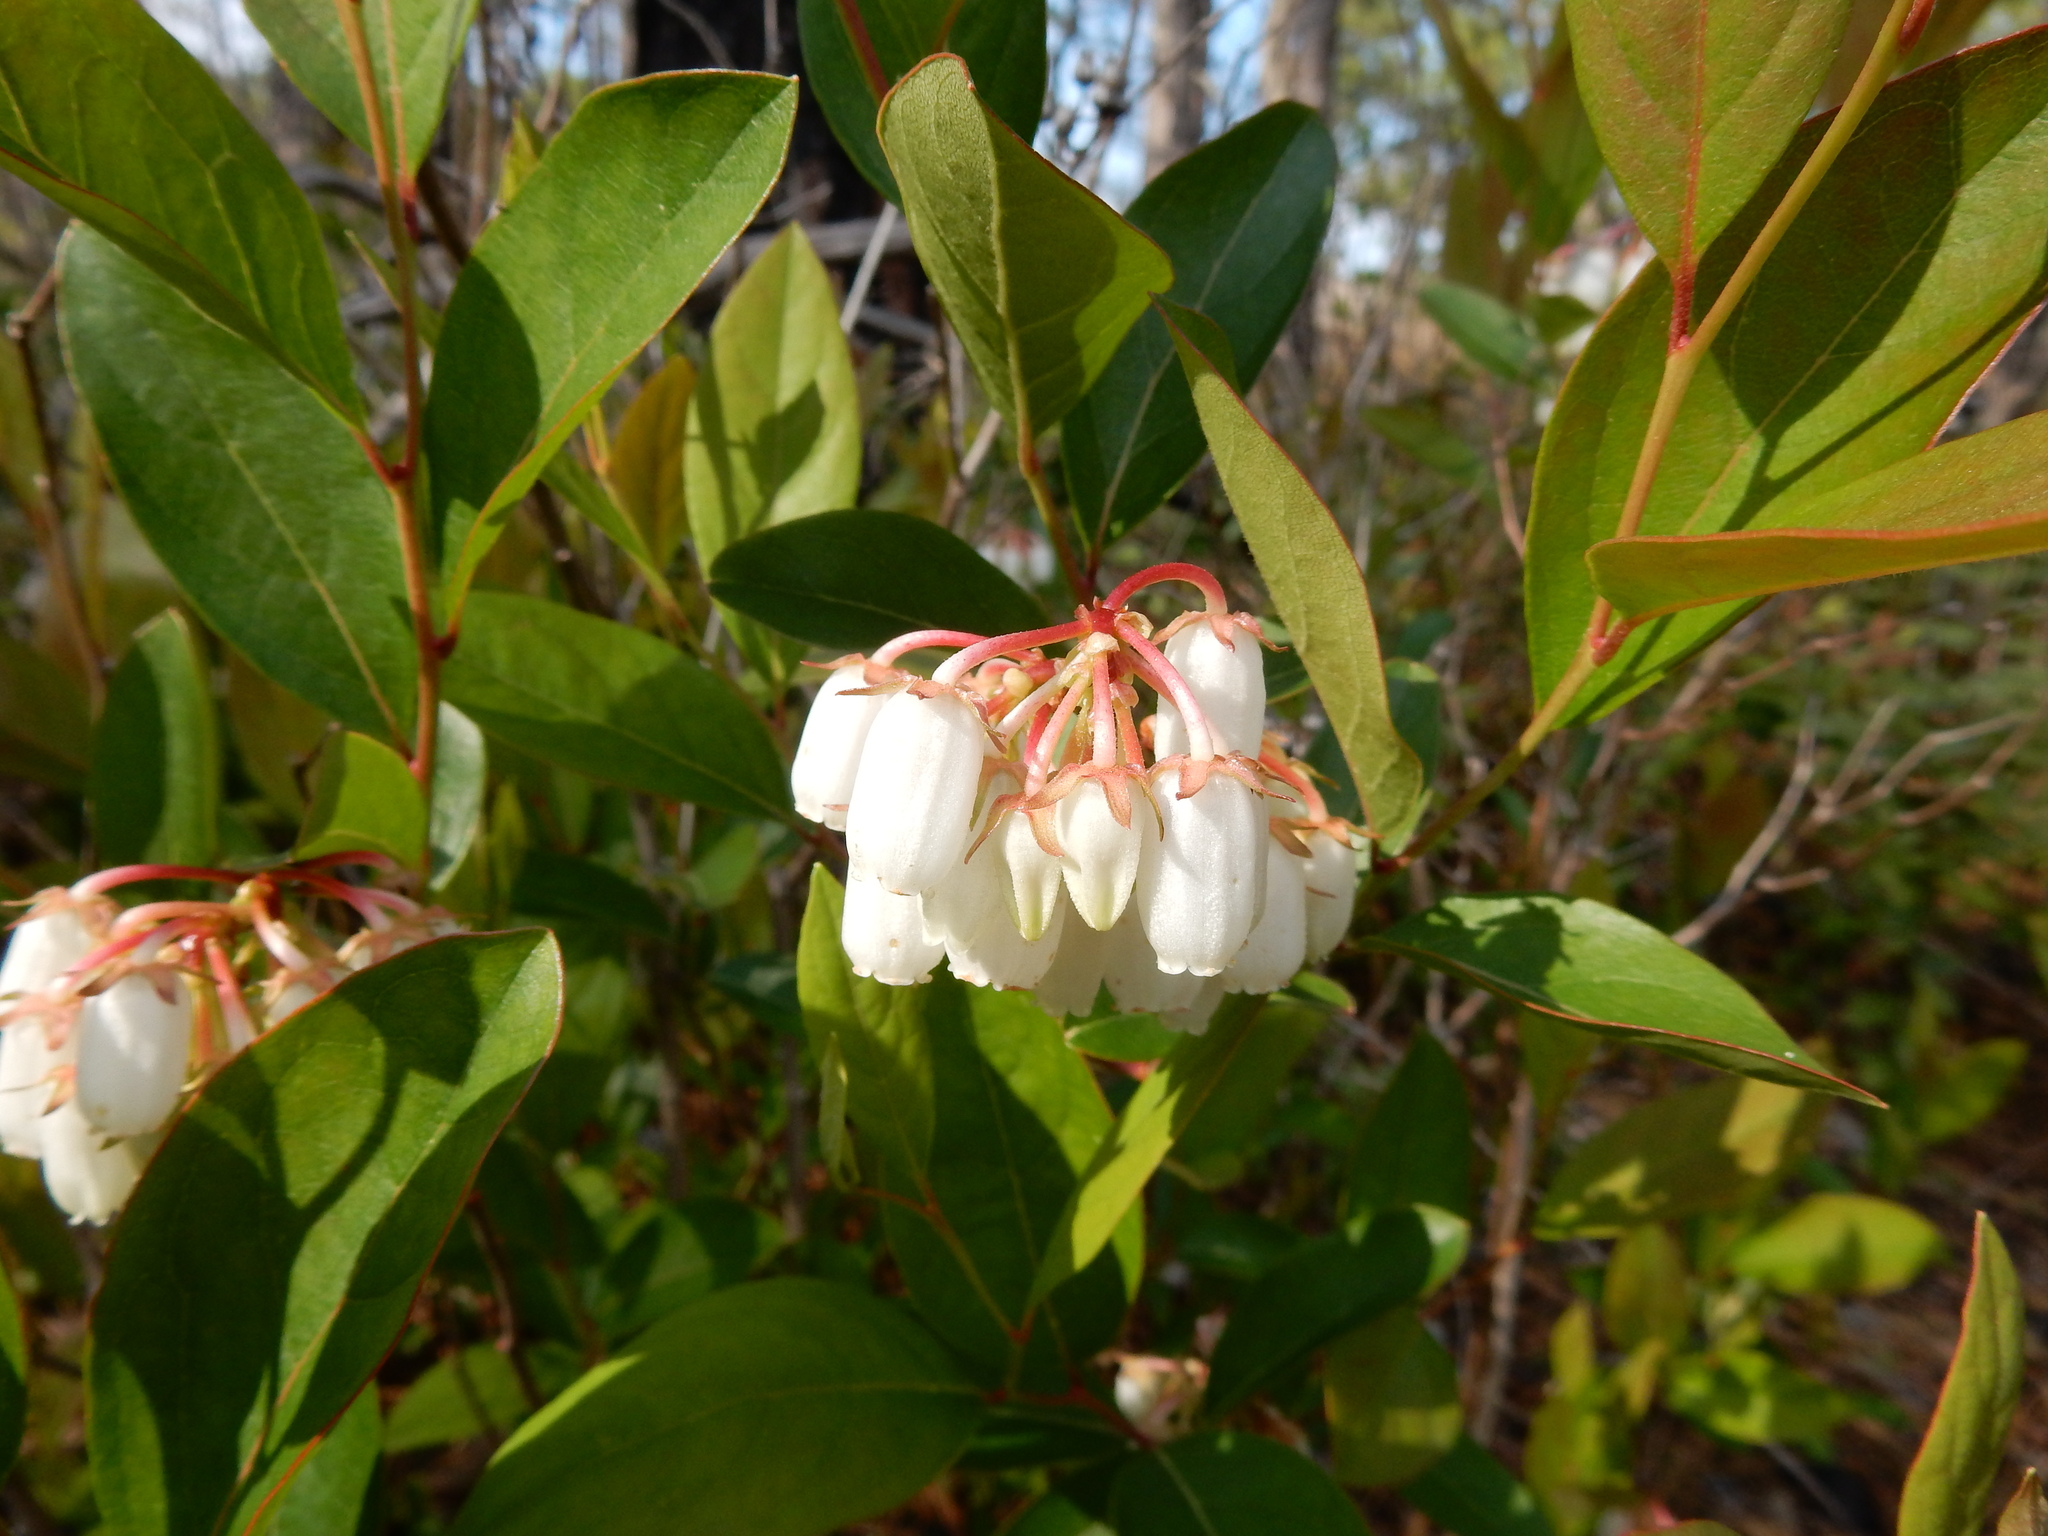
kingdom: Plantae
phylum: Tracheophyta
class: Magnoliopsida
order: Ericales
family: Ericaceae
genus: Lyonia
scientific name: Lyonia mariana
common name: Staggerbush
